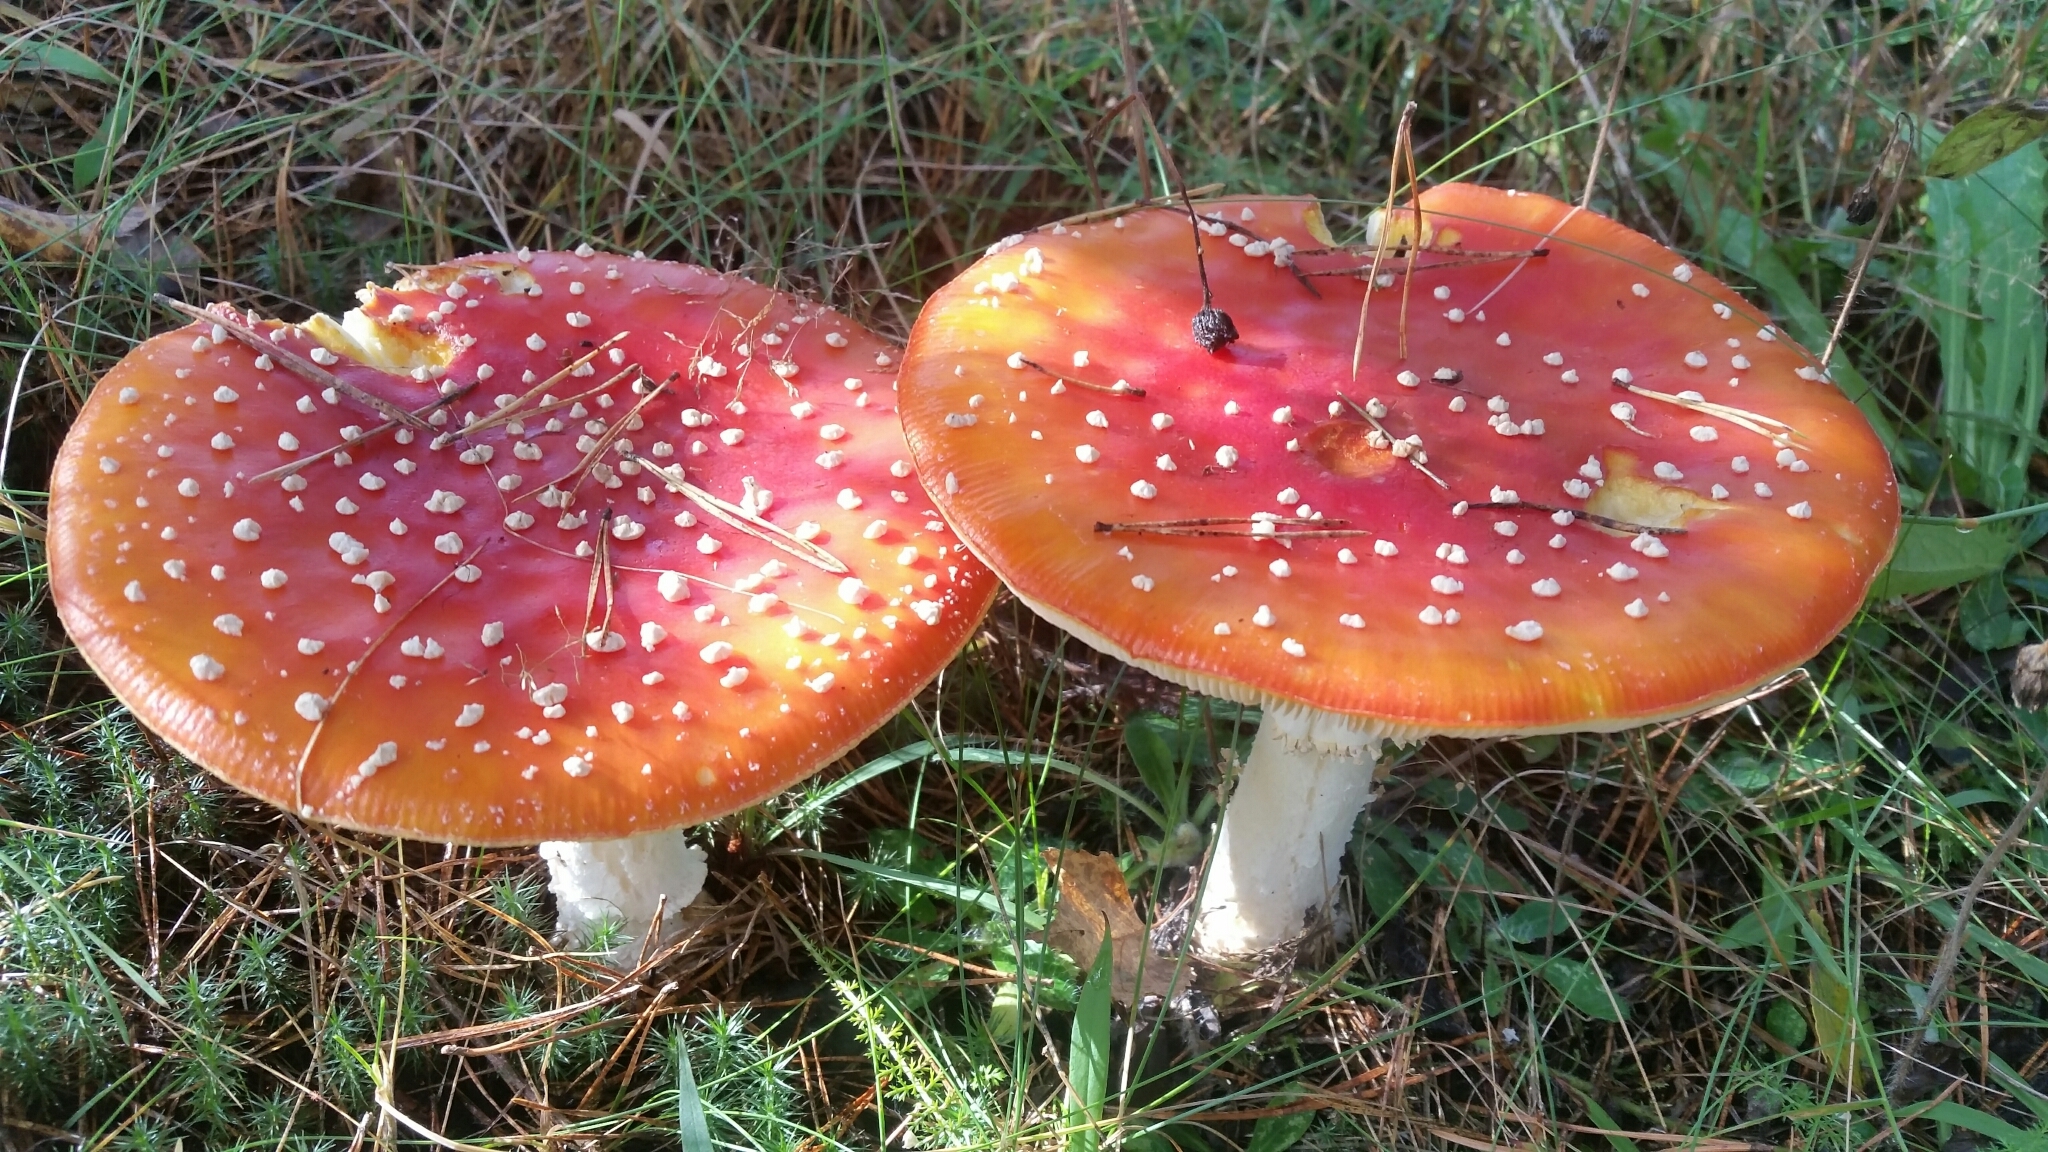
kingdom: Fungi
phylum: Basidiomycota
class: Agaricomycetes
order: Agaricales
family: Amanitaceae
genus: Amanita
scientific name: Amanita muscaria
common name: Fly agaric
